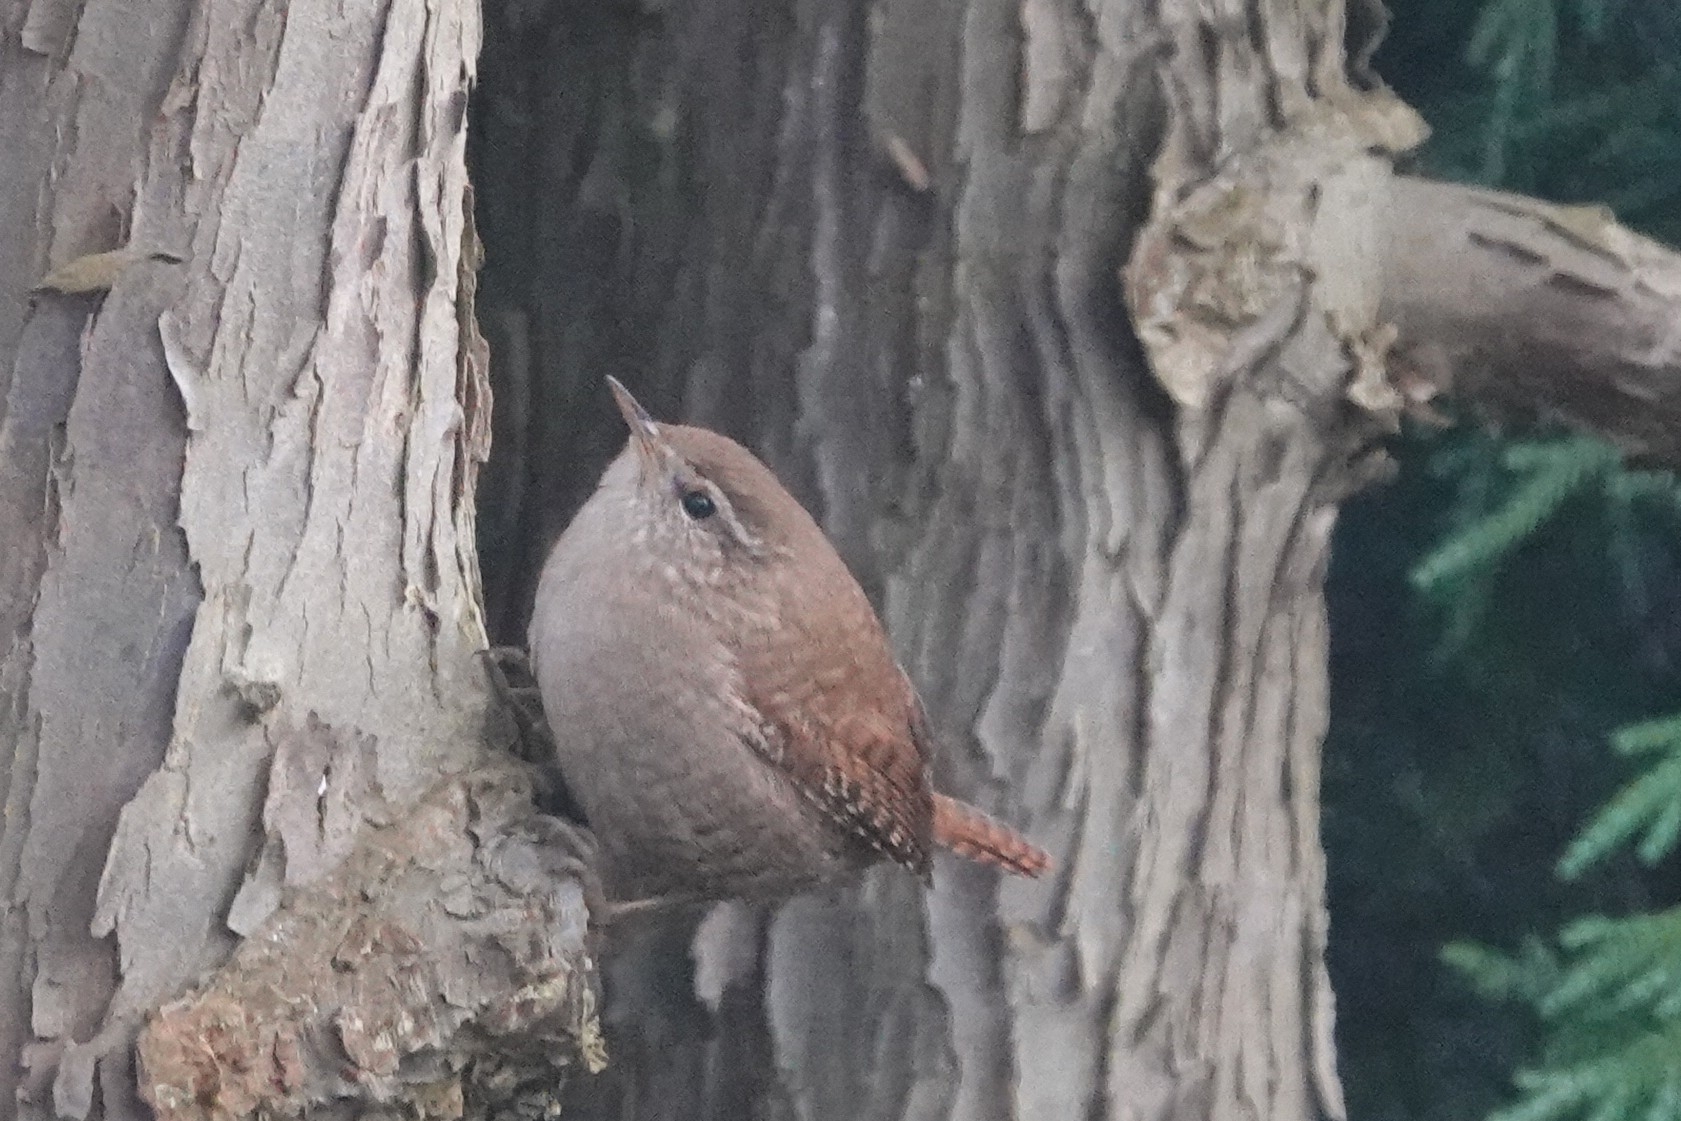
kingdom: Animalia
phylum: Chordata
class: Aves
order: Passeriformes
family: Troglodytidae
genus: Troglodytes
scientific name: Troglodytes troglodytes
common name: Eurasian wren
